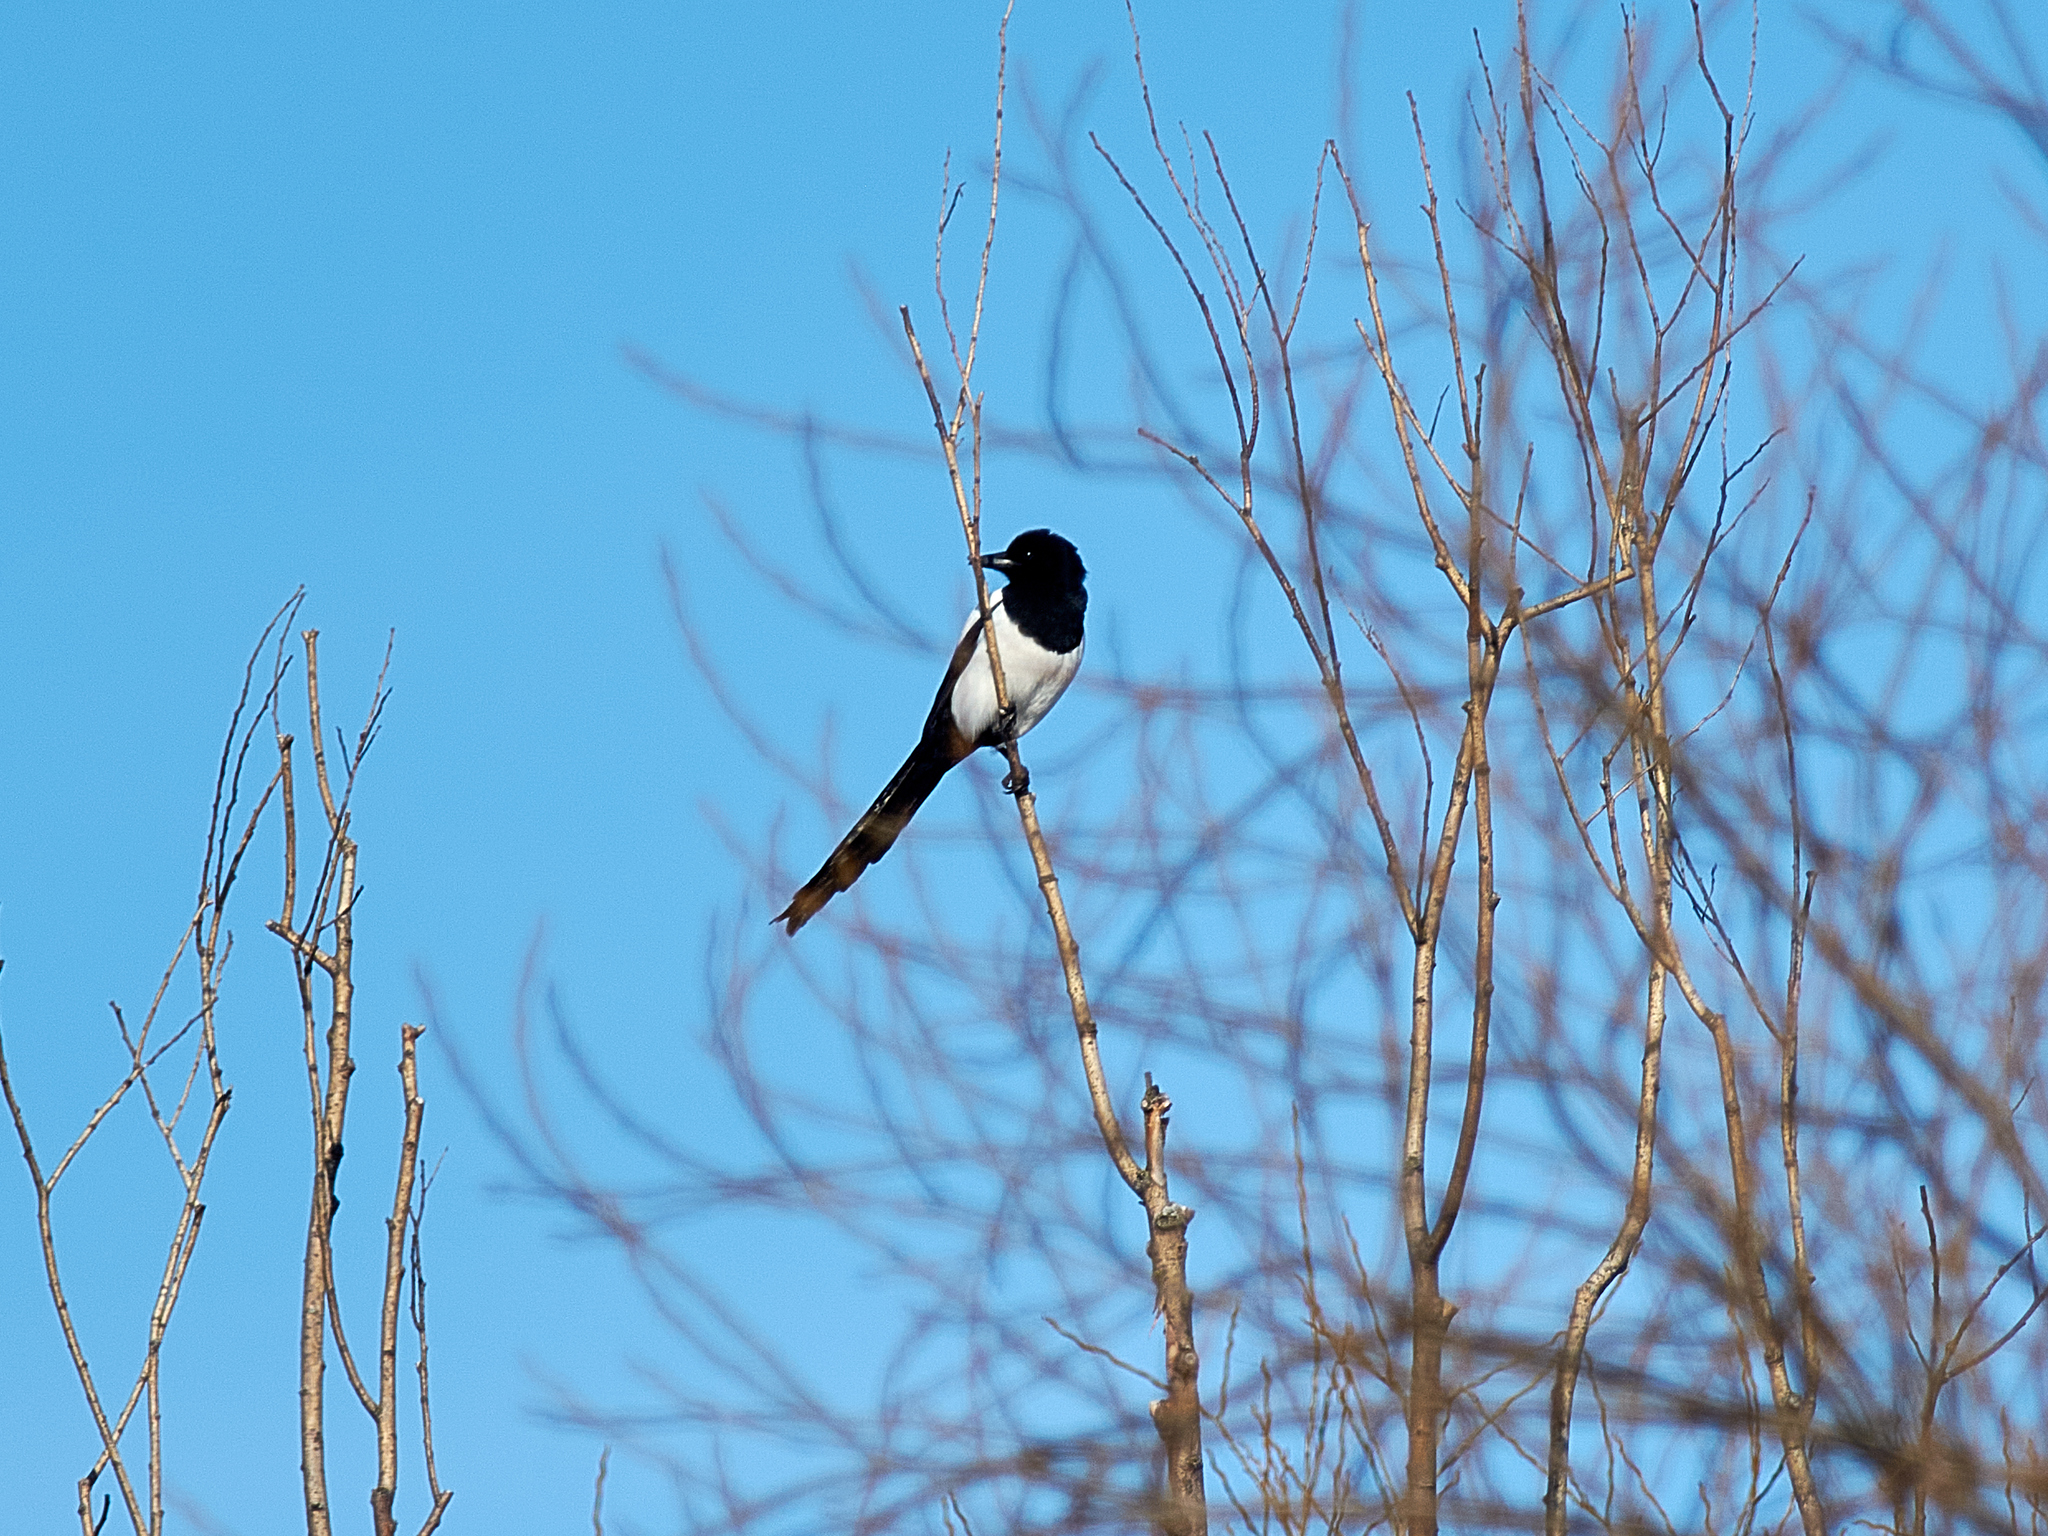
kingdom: Animalia
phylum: Chordata
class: Aves
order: Passeriformes
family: Corvidae
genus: Pica
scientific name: Pica pica
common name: Eurasian magpie
